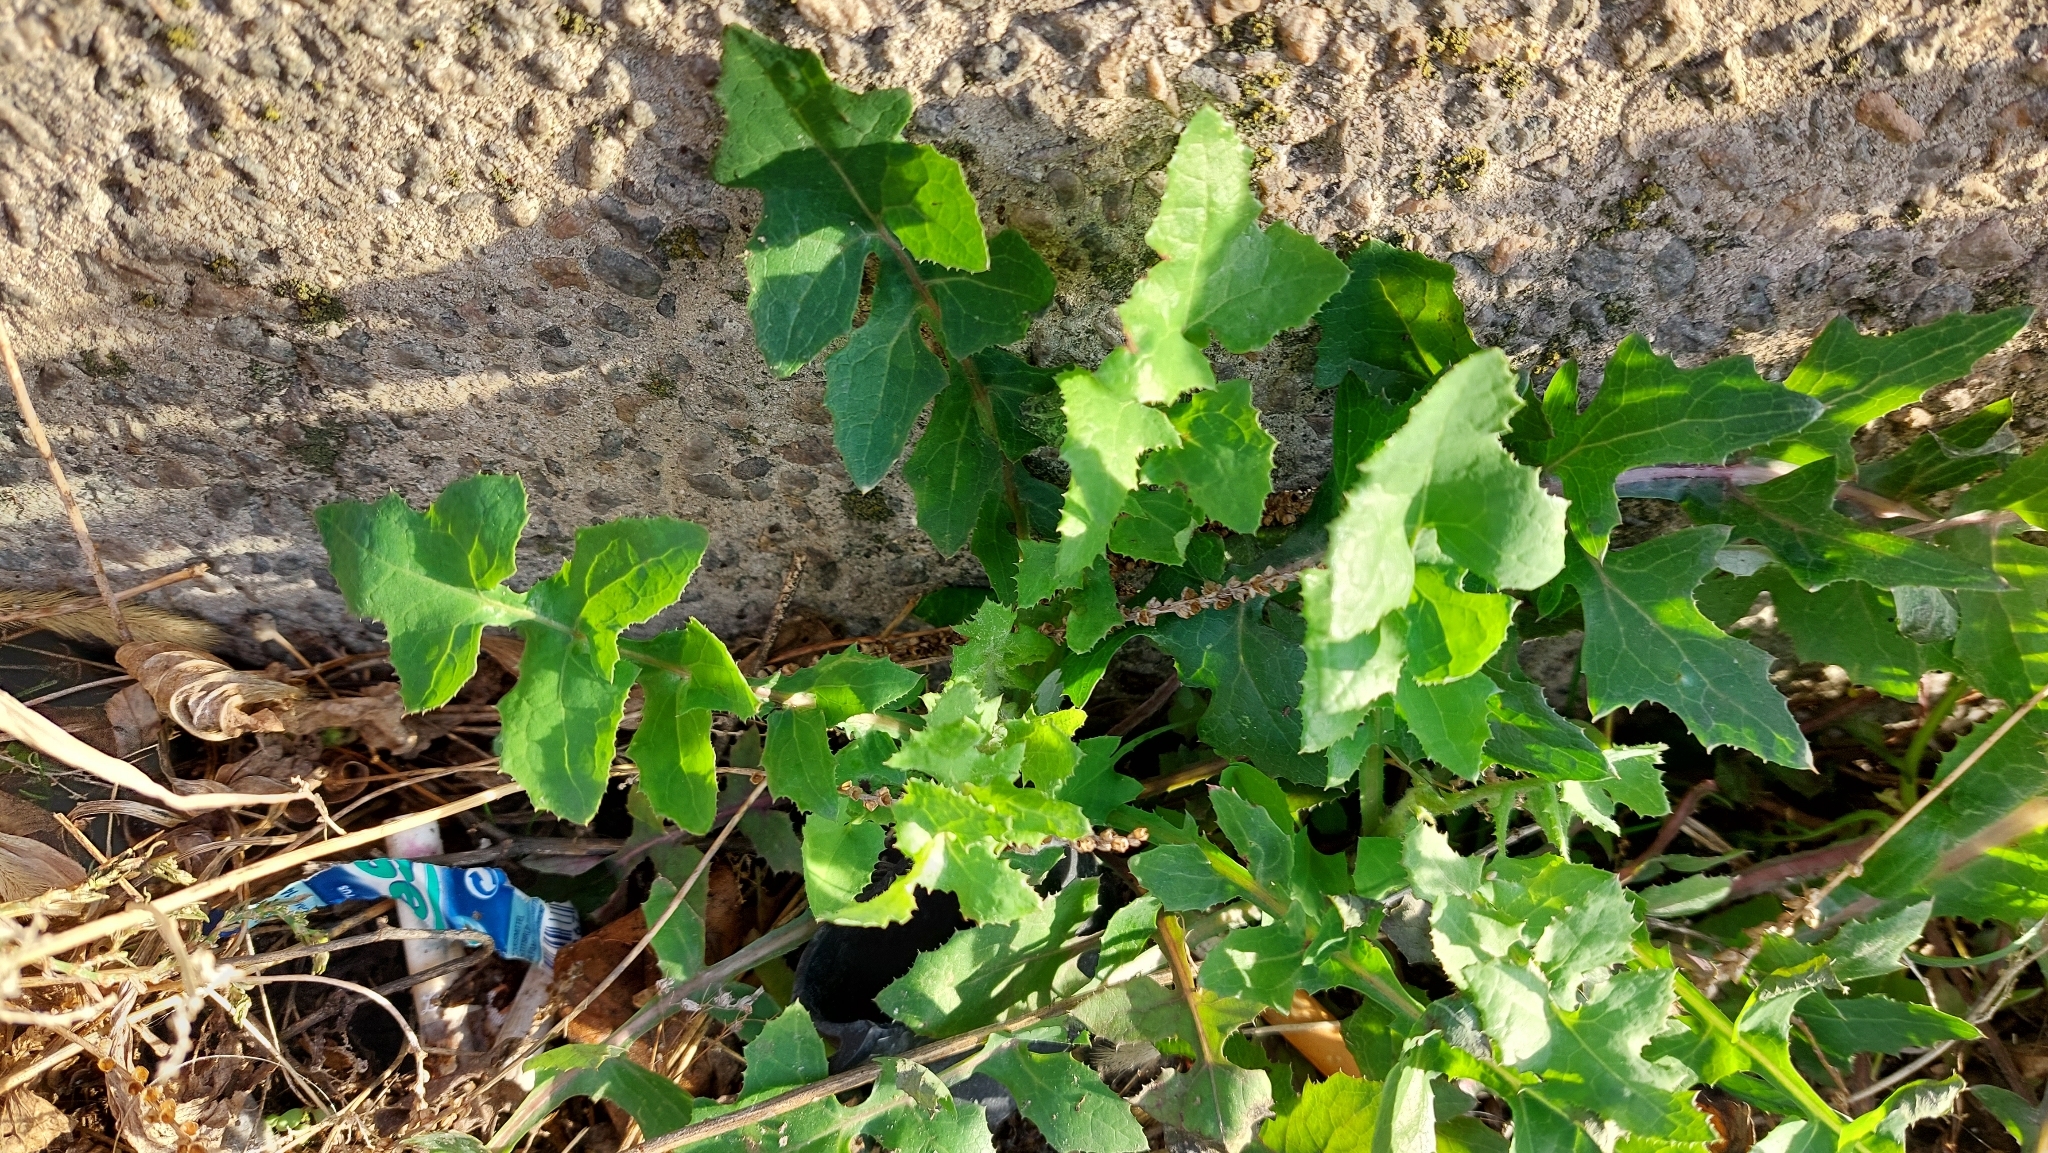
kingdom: Plantae
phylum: Tracheophyta
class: Magnoliopsida
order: Asterales
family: Asteraceae
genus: Sonchus
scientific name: Sonchus oleraceus
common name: Common sowthistle
